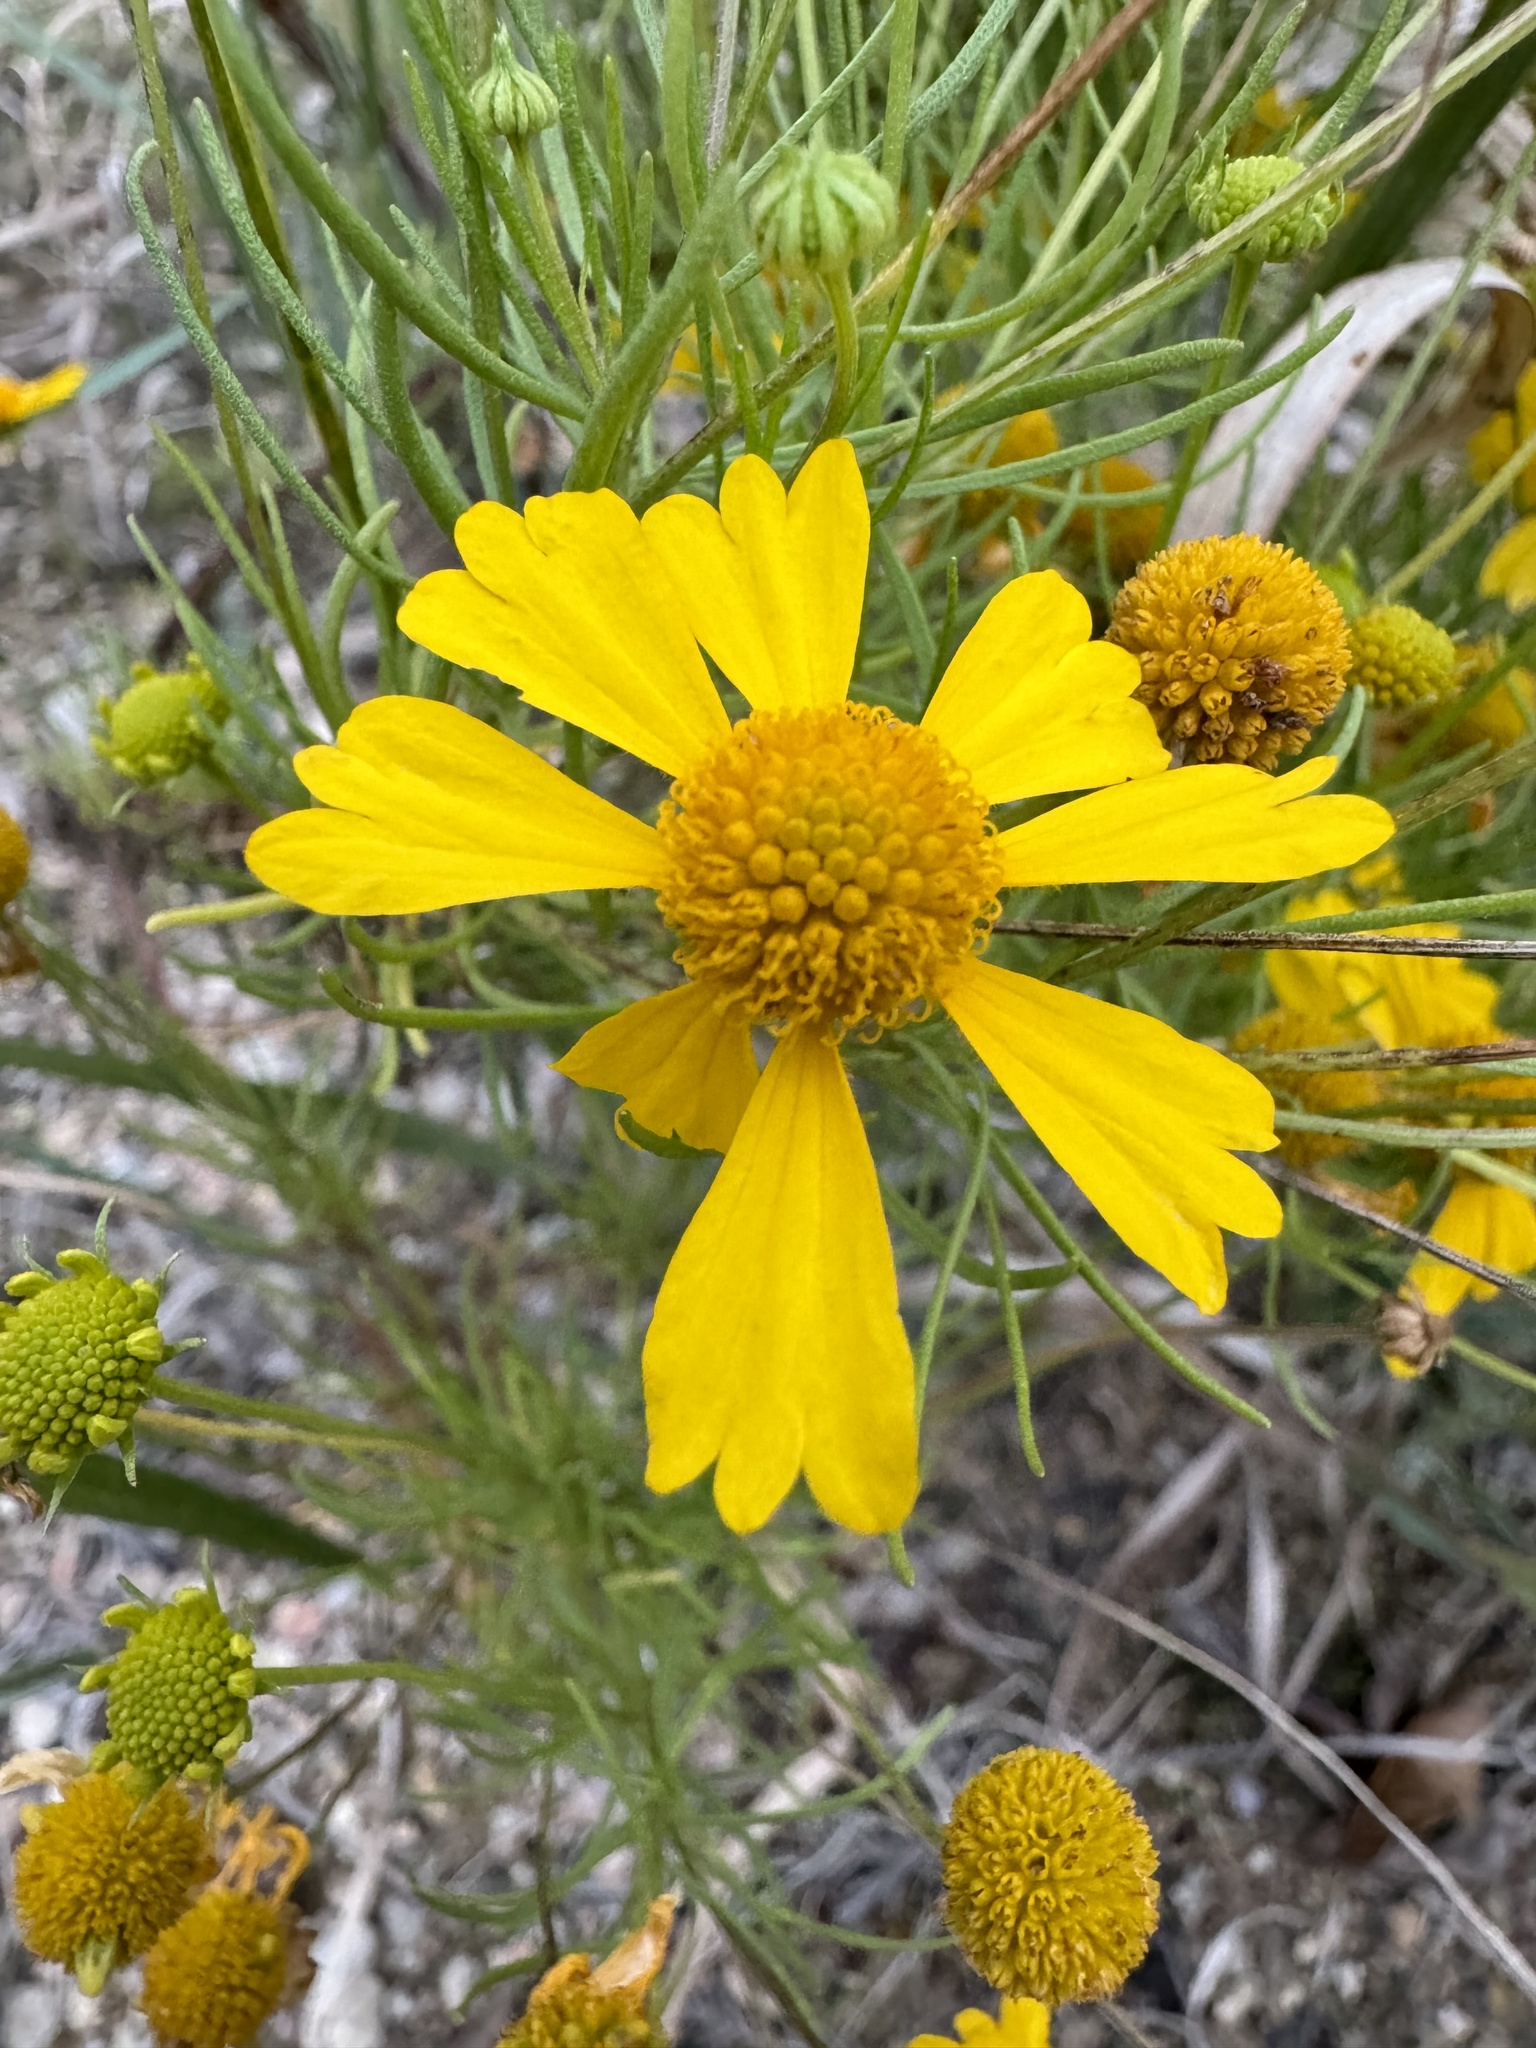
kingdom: Plantae
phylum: Tracheophyta
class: Magnoliopsida
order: Asterales
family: Asteraceae
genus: Helenium
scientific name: Helenium amarum
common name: Bitter sneezeweed
